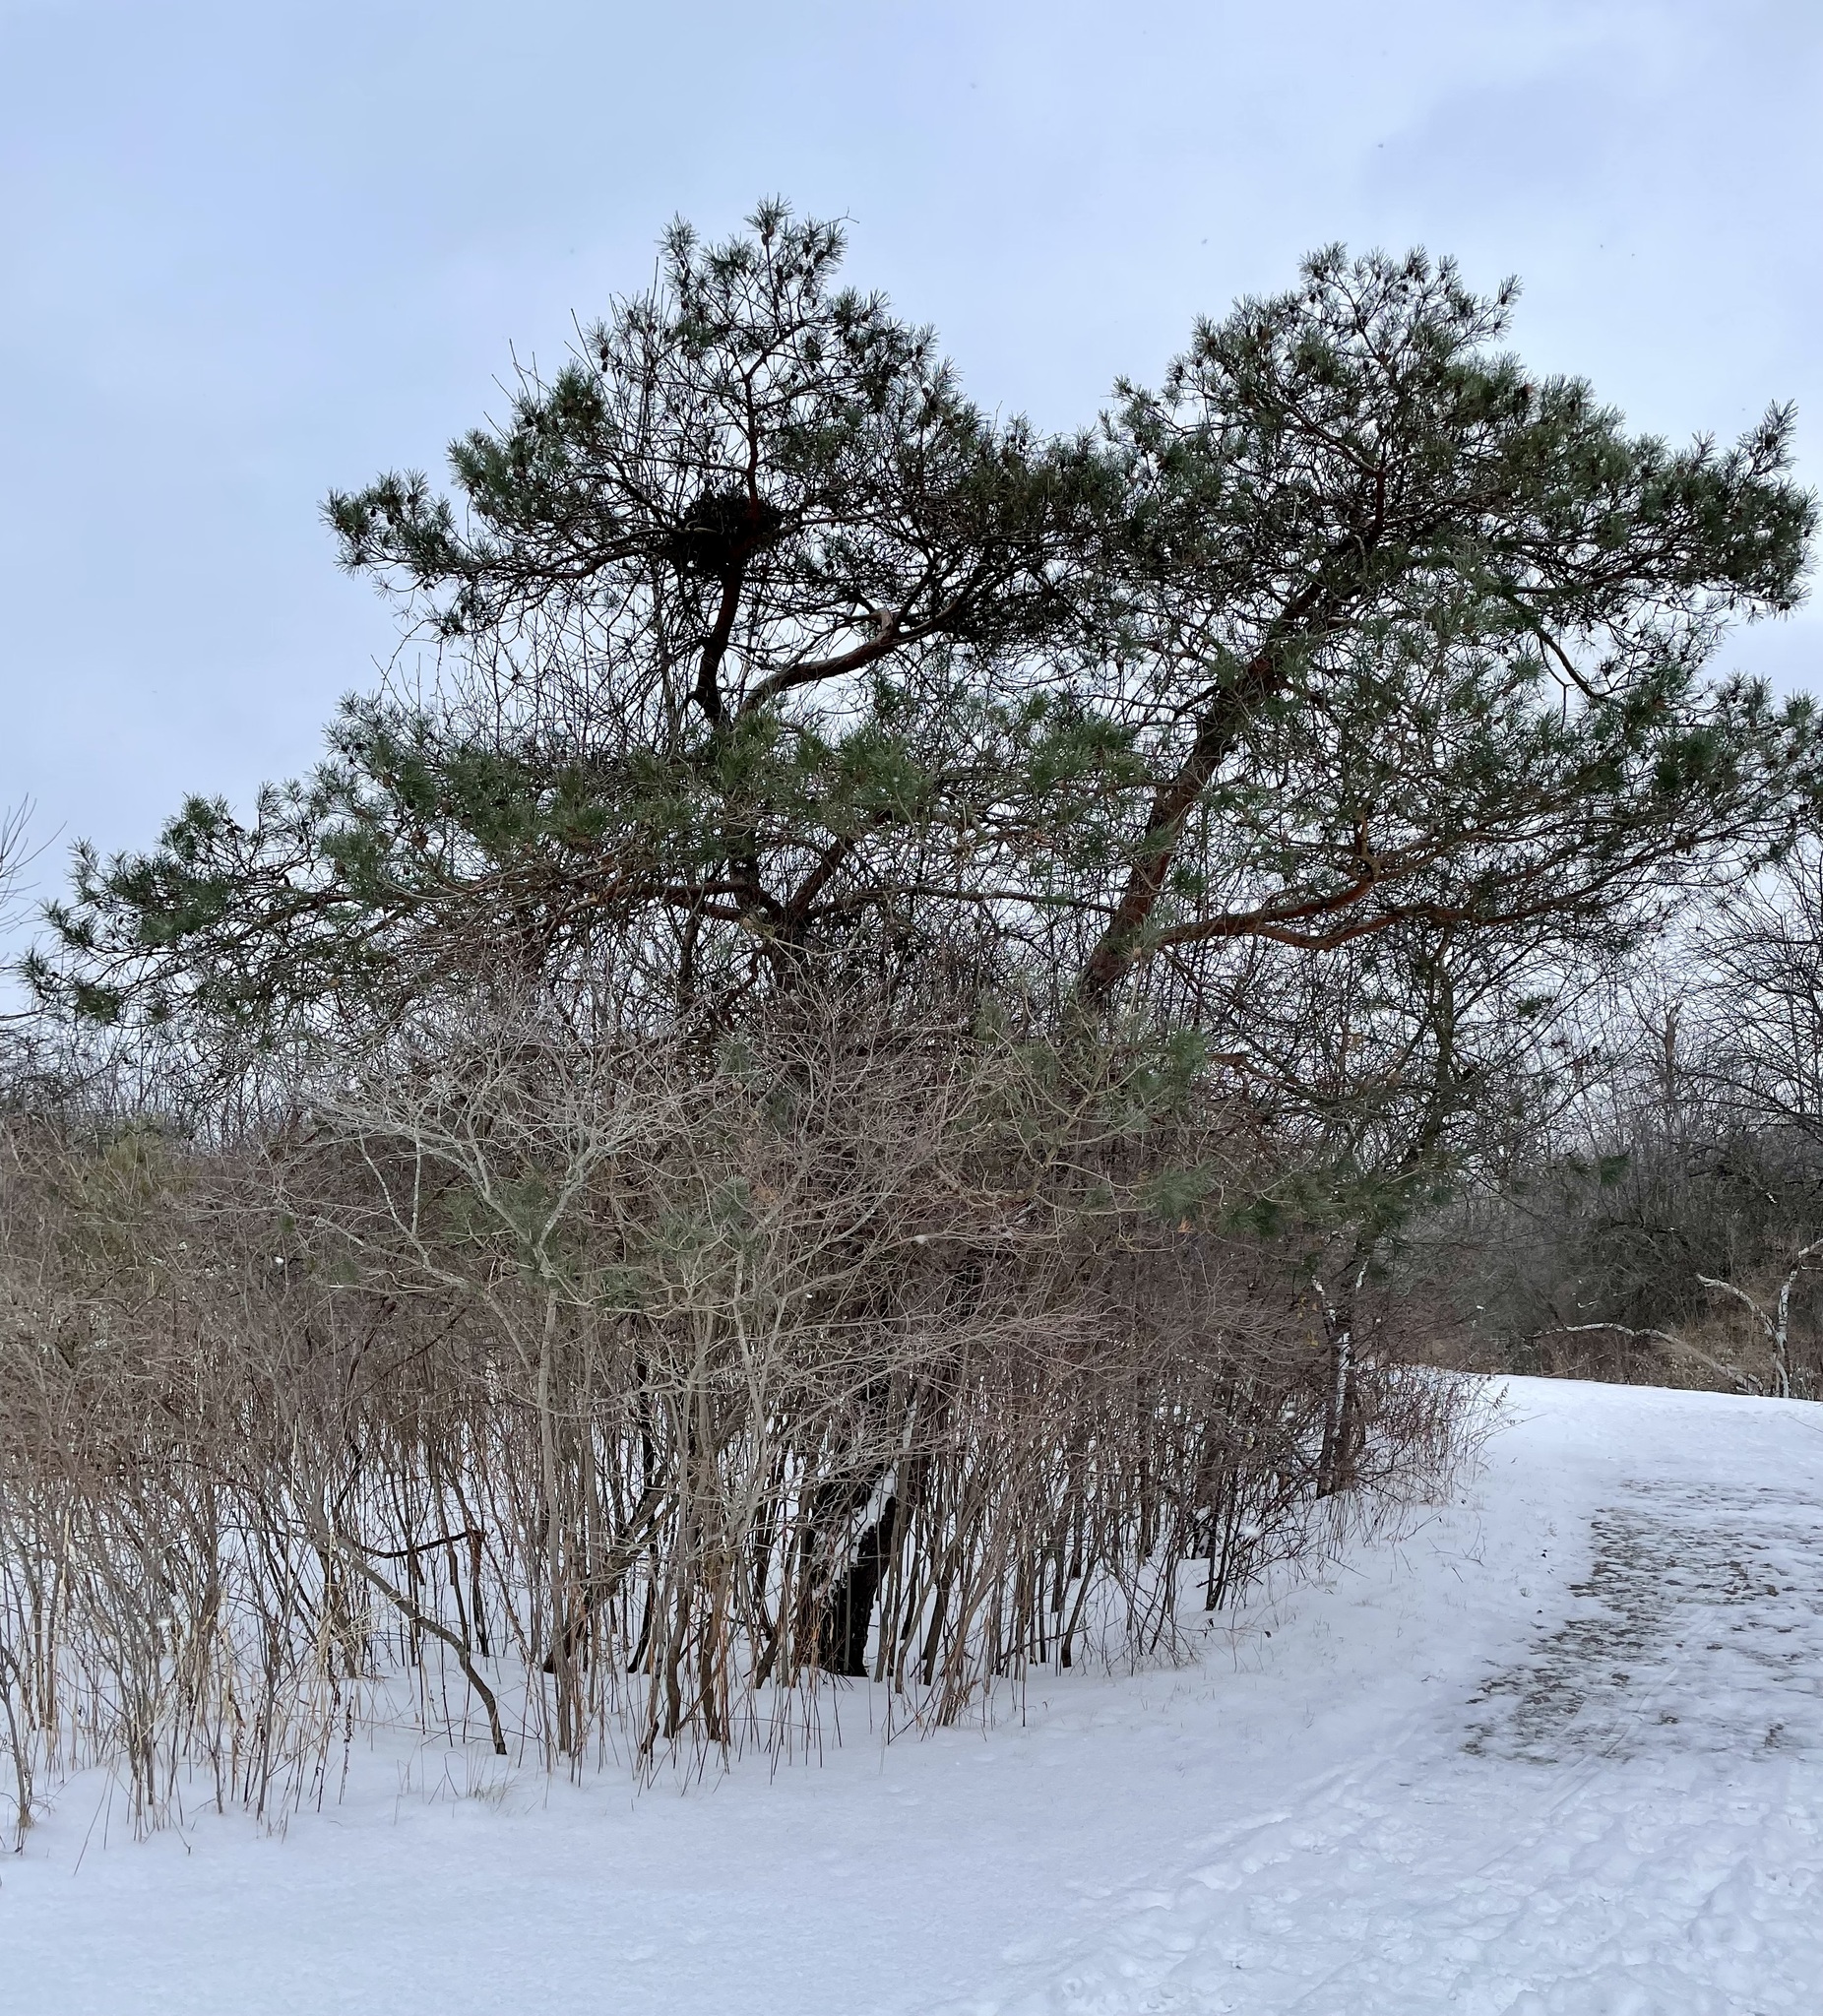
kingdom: Plantae
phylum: Tracheophyta
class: Pinopsida
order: Pinales
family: Pinaceae
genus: Pinus
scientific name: Pinus sylvestris
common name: Scots pine
